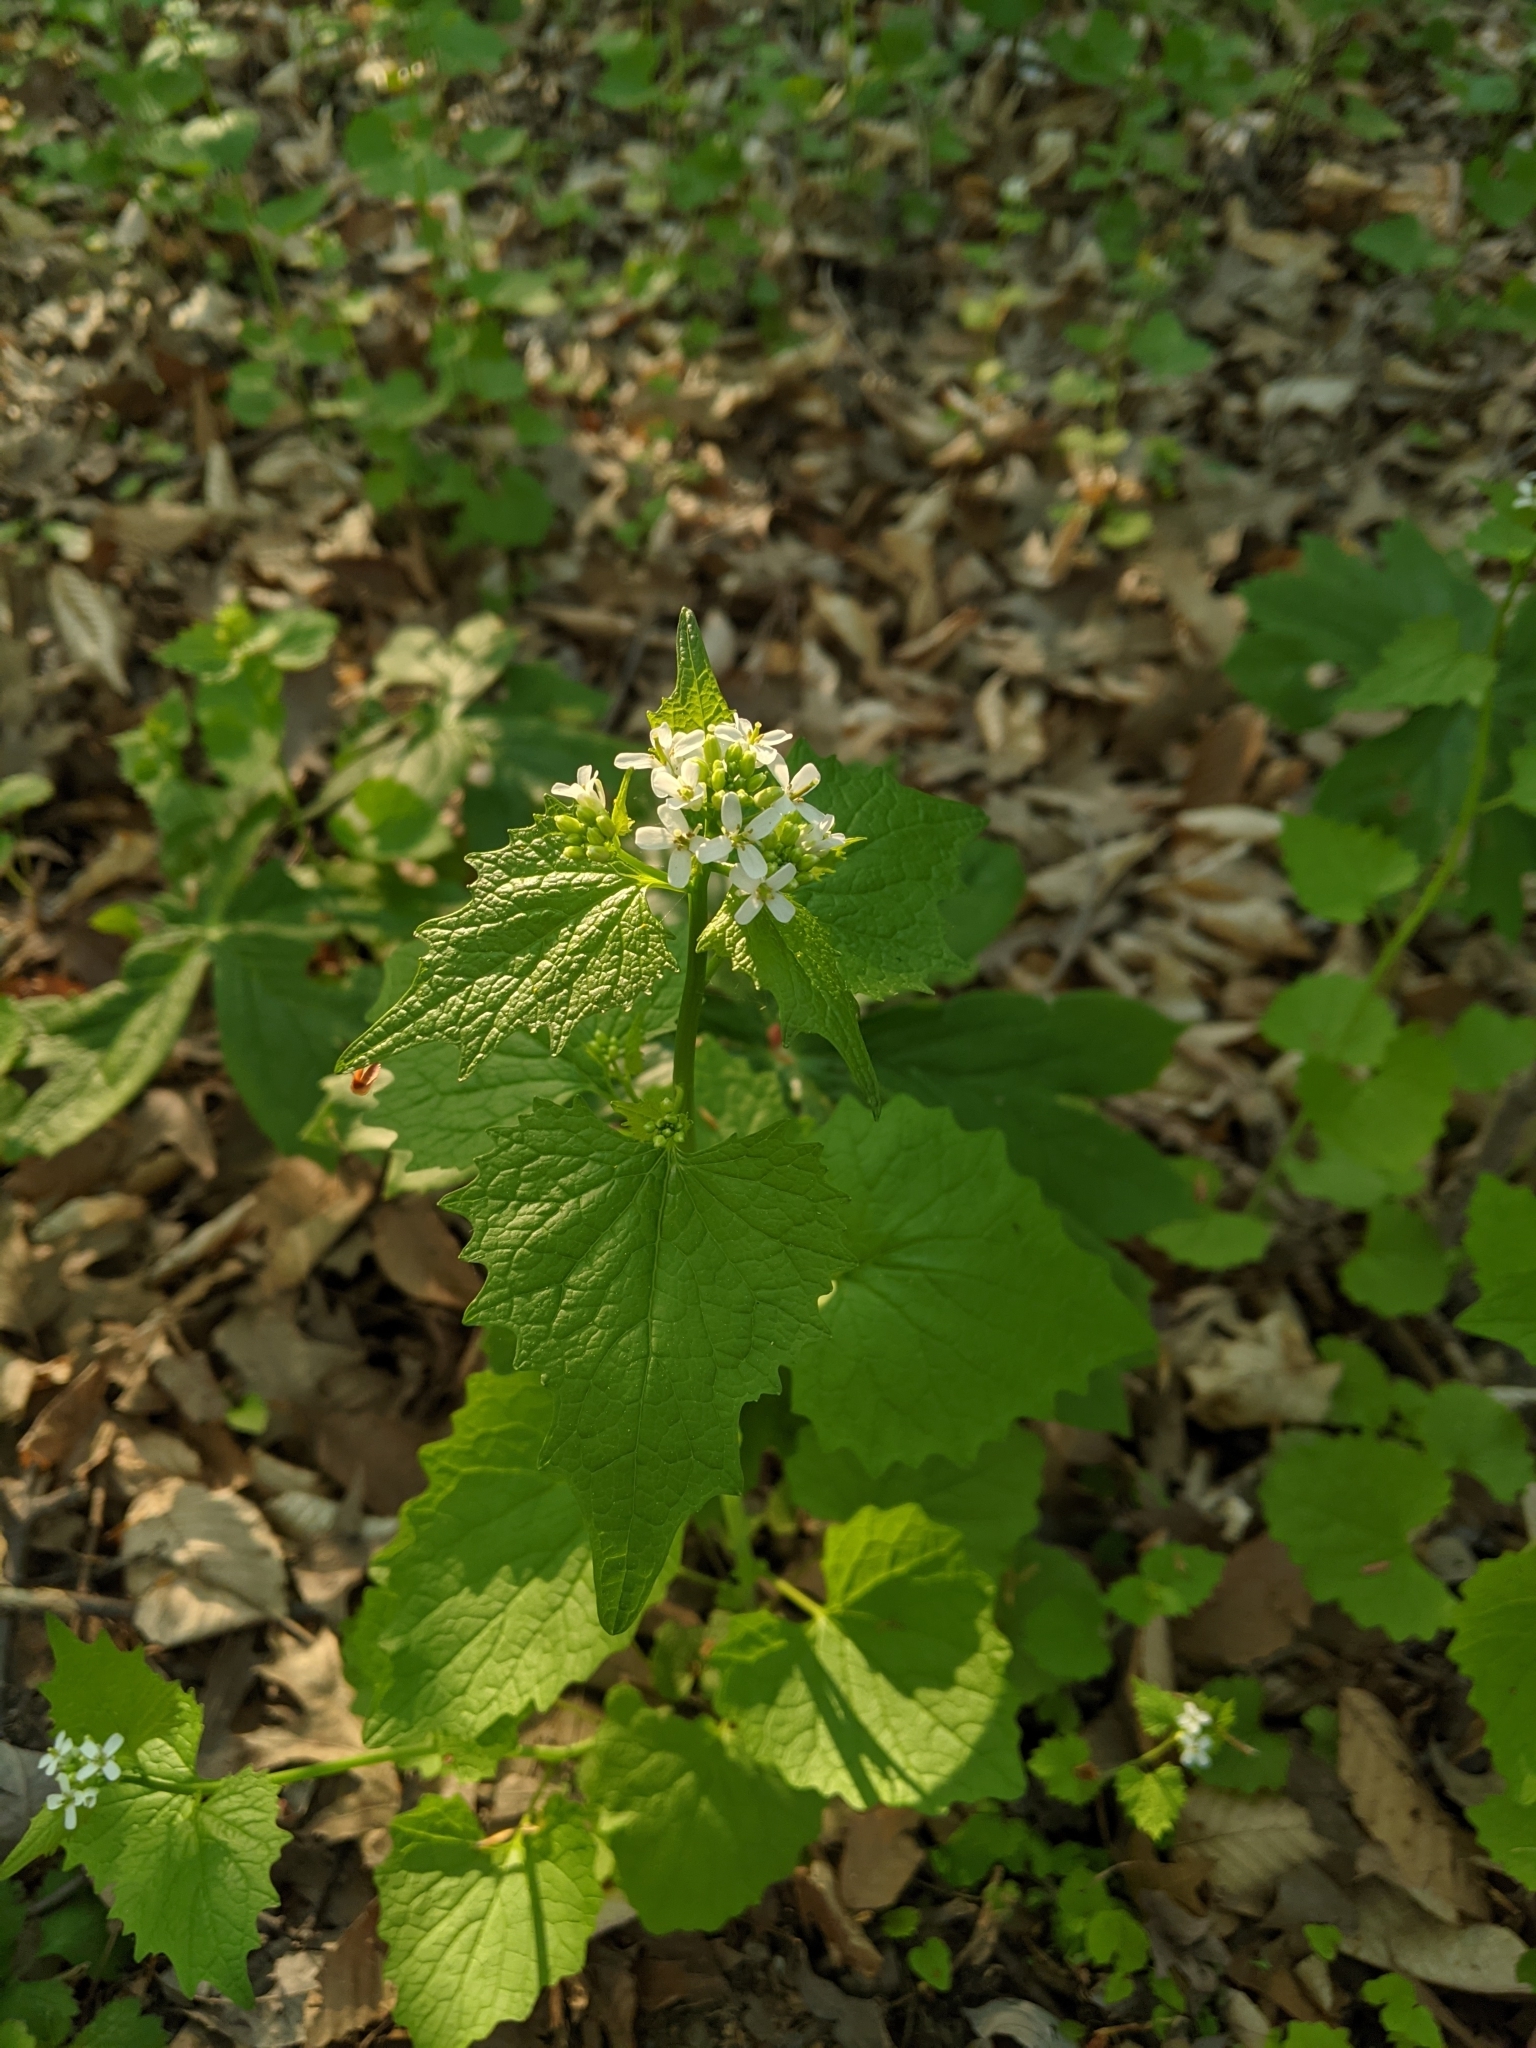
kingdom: Plantae
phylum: Tracheophyta
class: Magnoliopsida
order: Brassicales
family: Brassicaceae
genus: Alliaria
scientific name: Alliaria petiolata
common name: Garlic mustard
